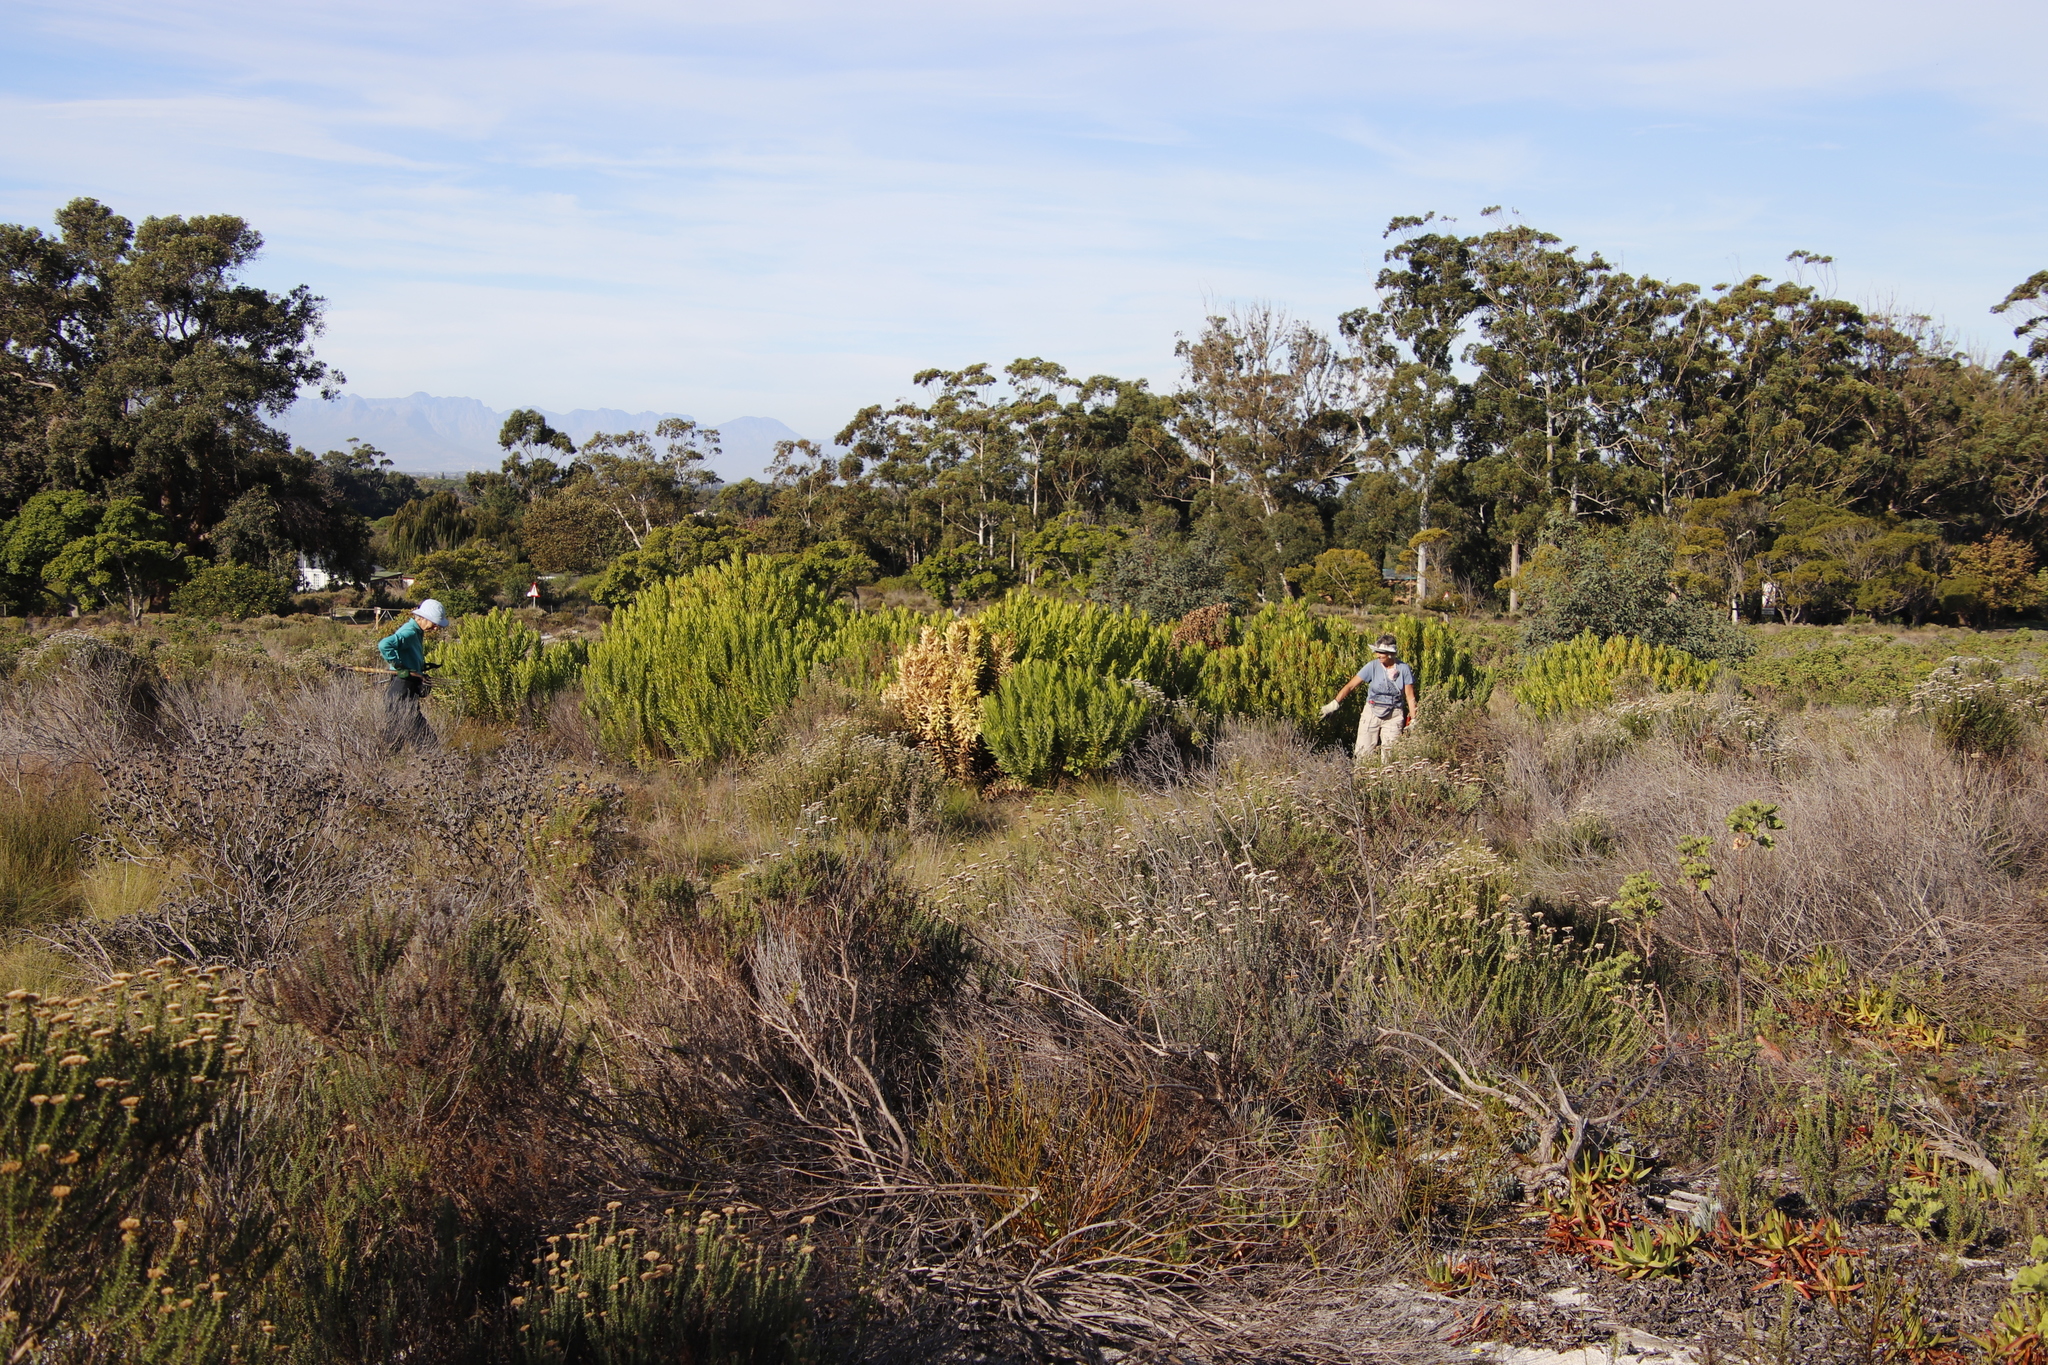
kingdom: Plantae
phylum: Tracheophyta
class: Magnoliopsida
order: Proteales
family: Proteaceae
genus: Leucadendron
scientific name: Leucadendron laureolum
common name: Golden sunshinebush
